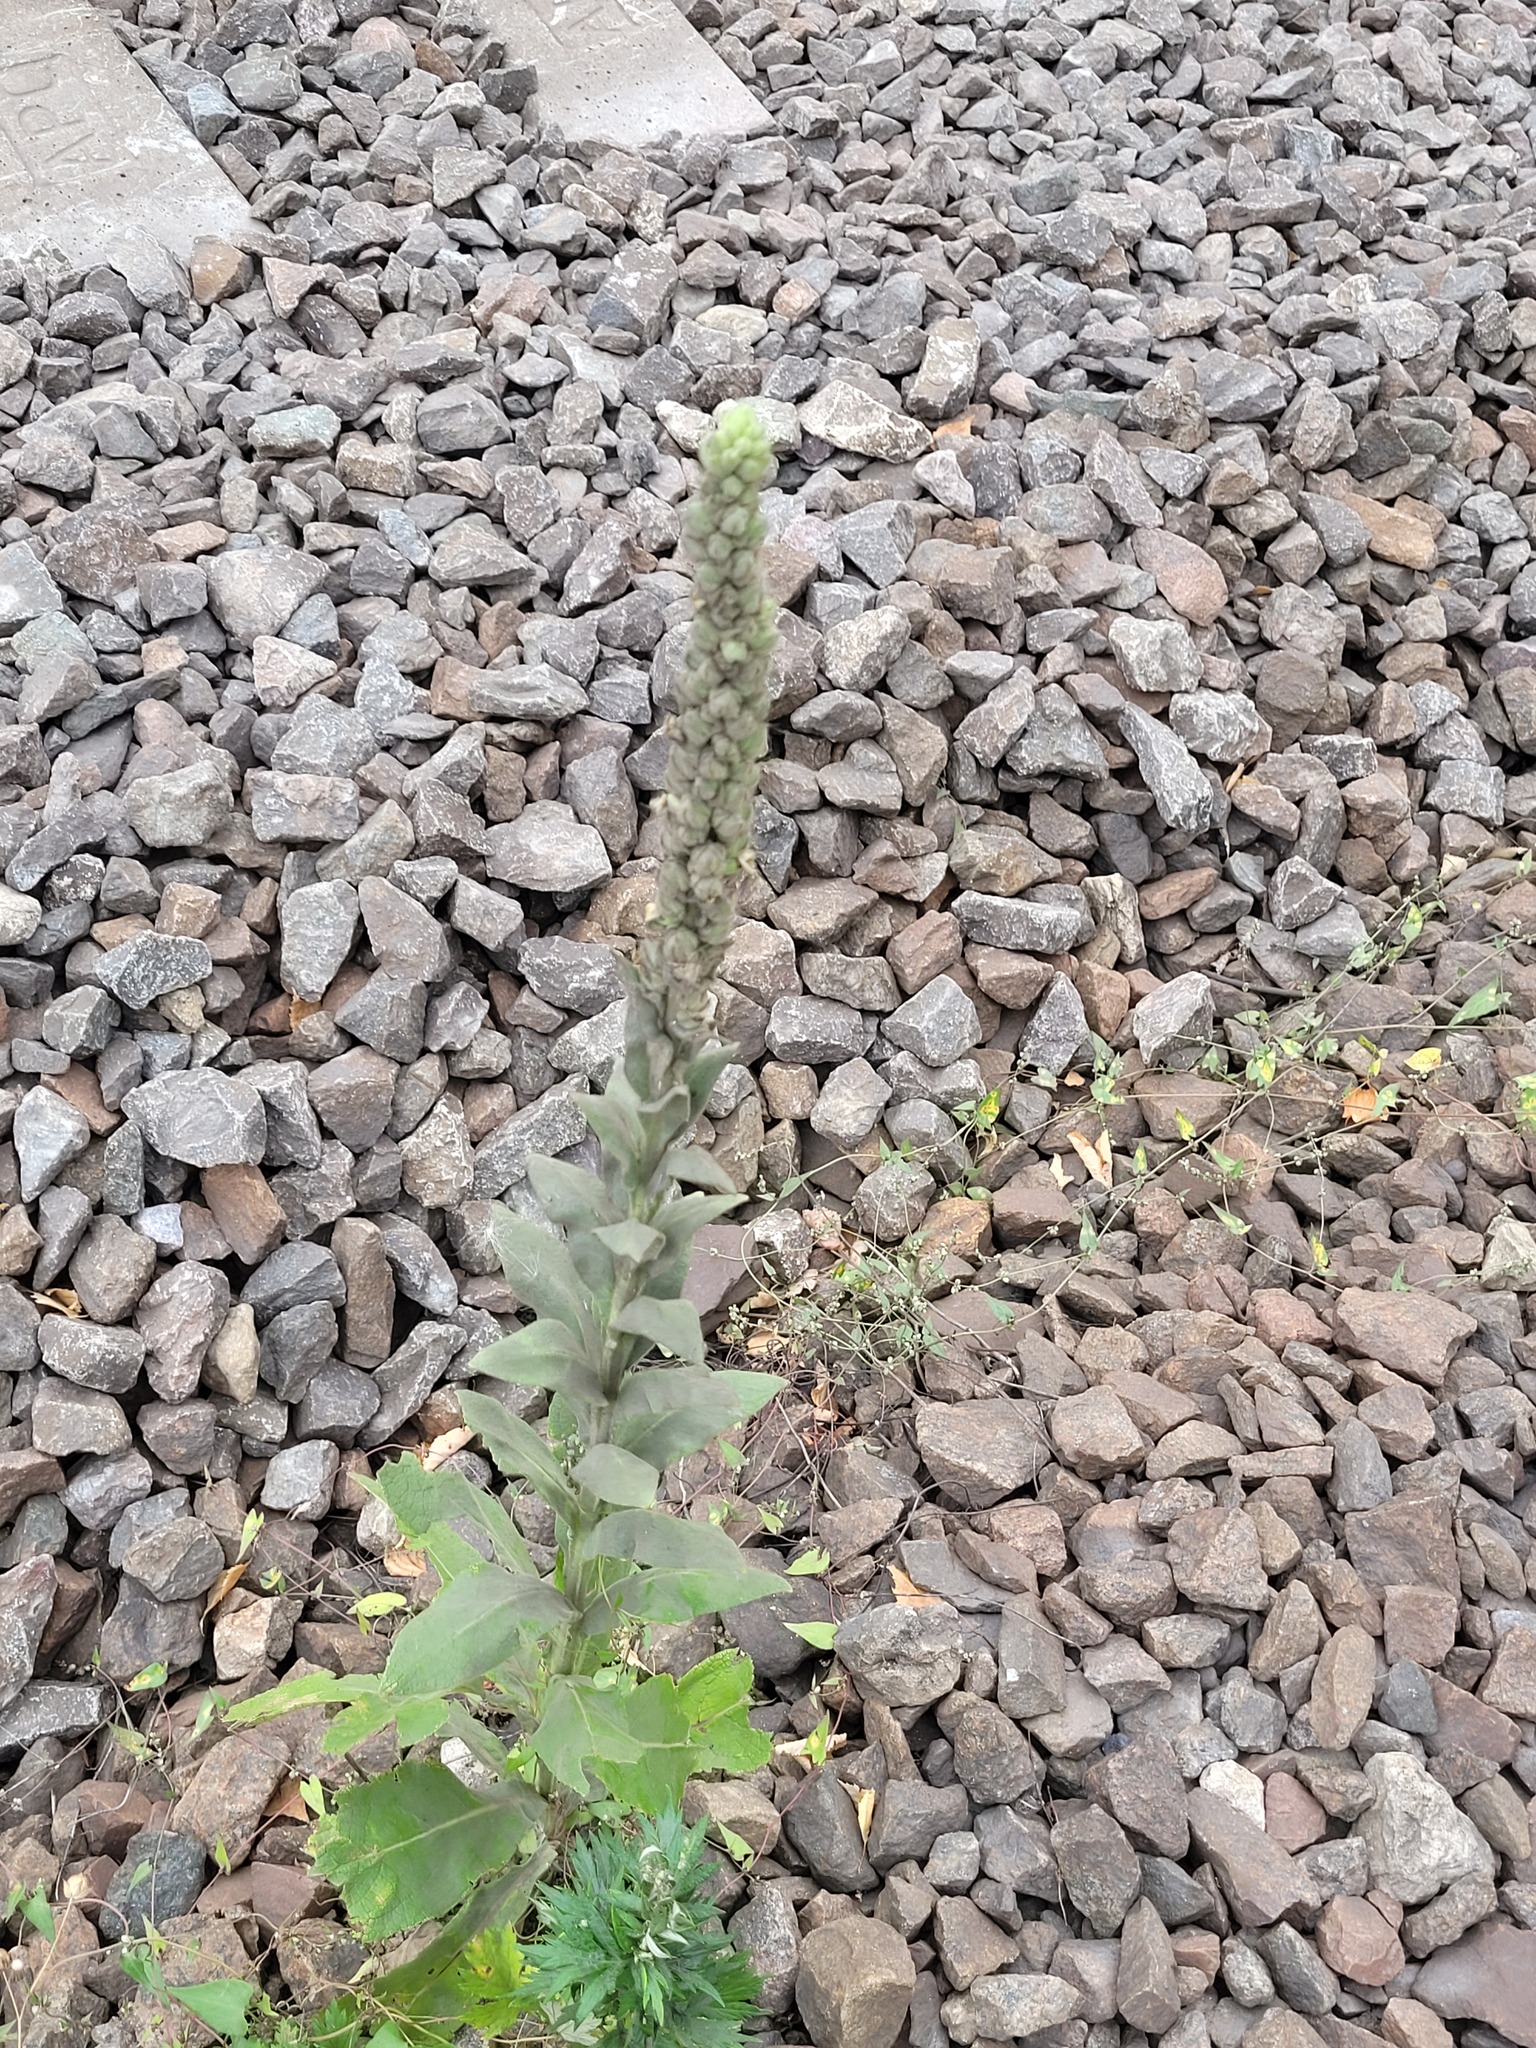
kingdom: Plantae
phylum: Tracheophyta
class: Magnoliopsida
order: Lamiales
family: Scrophulariaceae
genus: Verbascum
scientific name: Verbascum thapsus
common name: Common mullein
